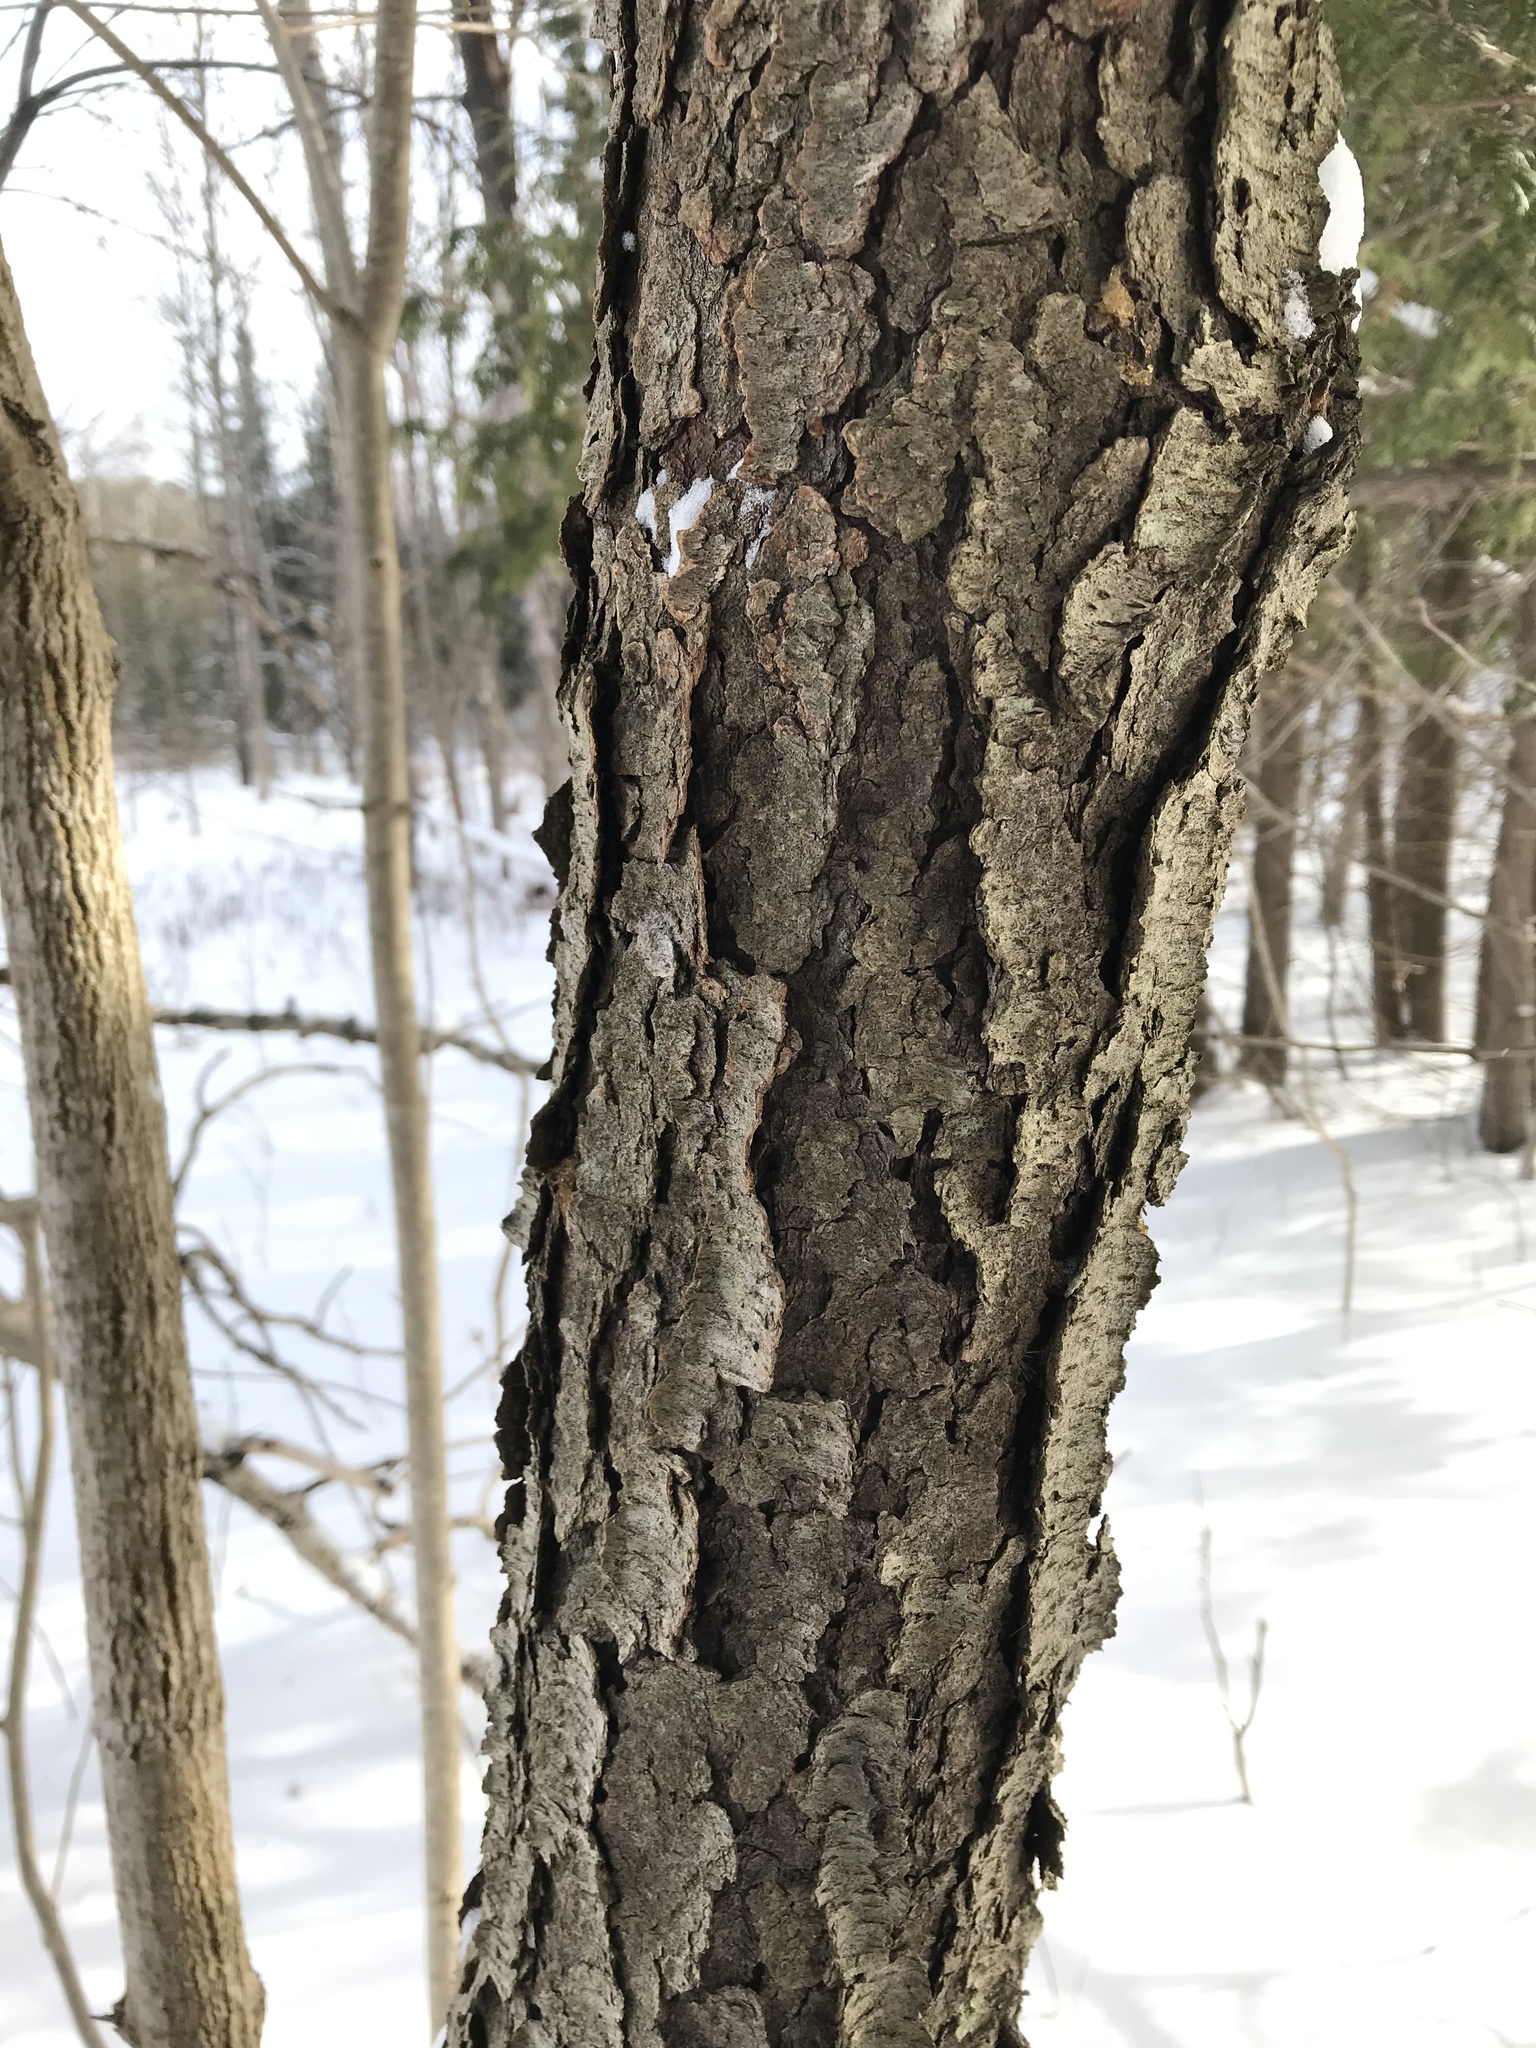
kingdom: Plantae
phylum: Tracheophyta
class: Magnoliopsida
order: Rosales
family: Rosaceae
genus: Prunus
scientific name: Prunus serotina
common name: Black cherry
